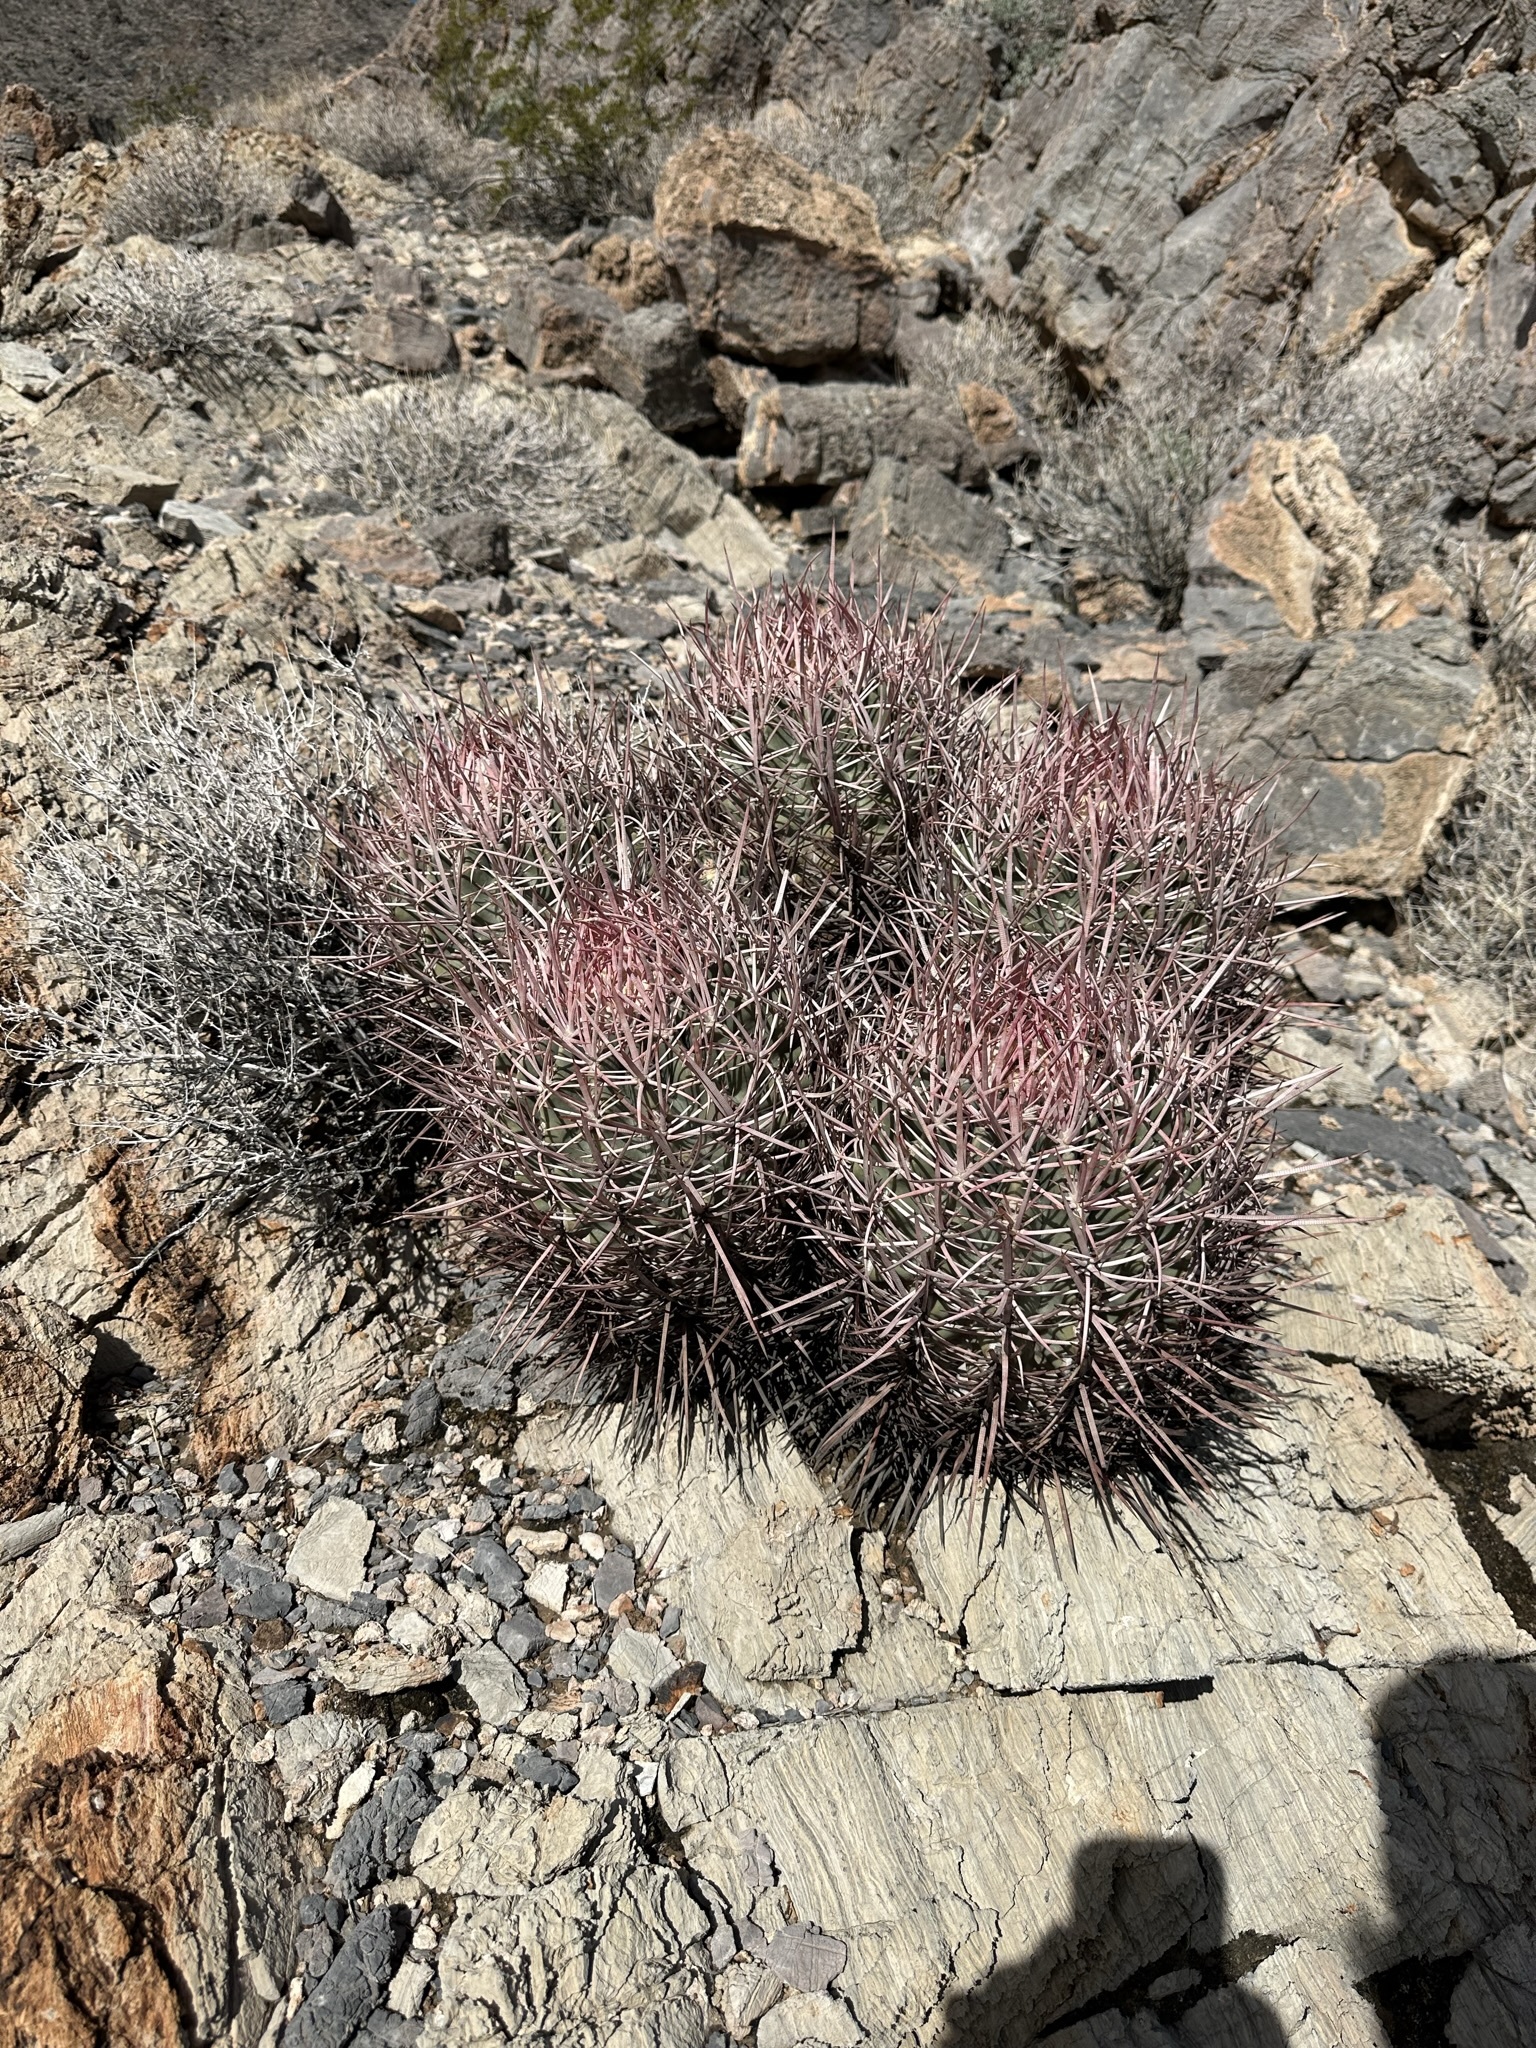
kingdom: Plantae
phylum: Tracheophyta
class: Magnoliopsida
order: Caryophyllales
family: Cactaceae
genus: Echinocactus
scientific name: Echinocactus polycephalus
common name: Cottontop cactus
